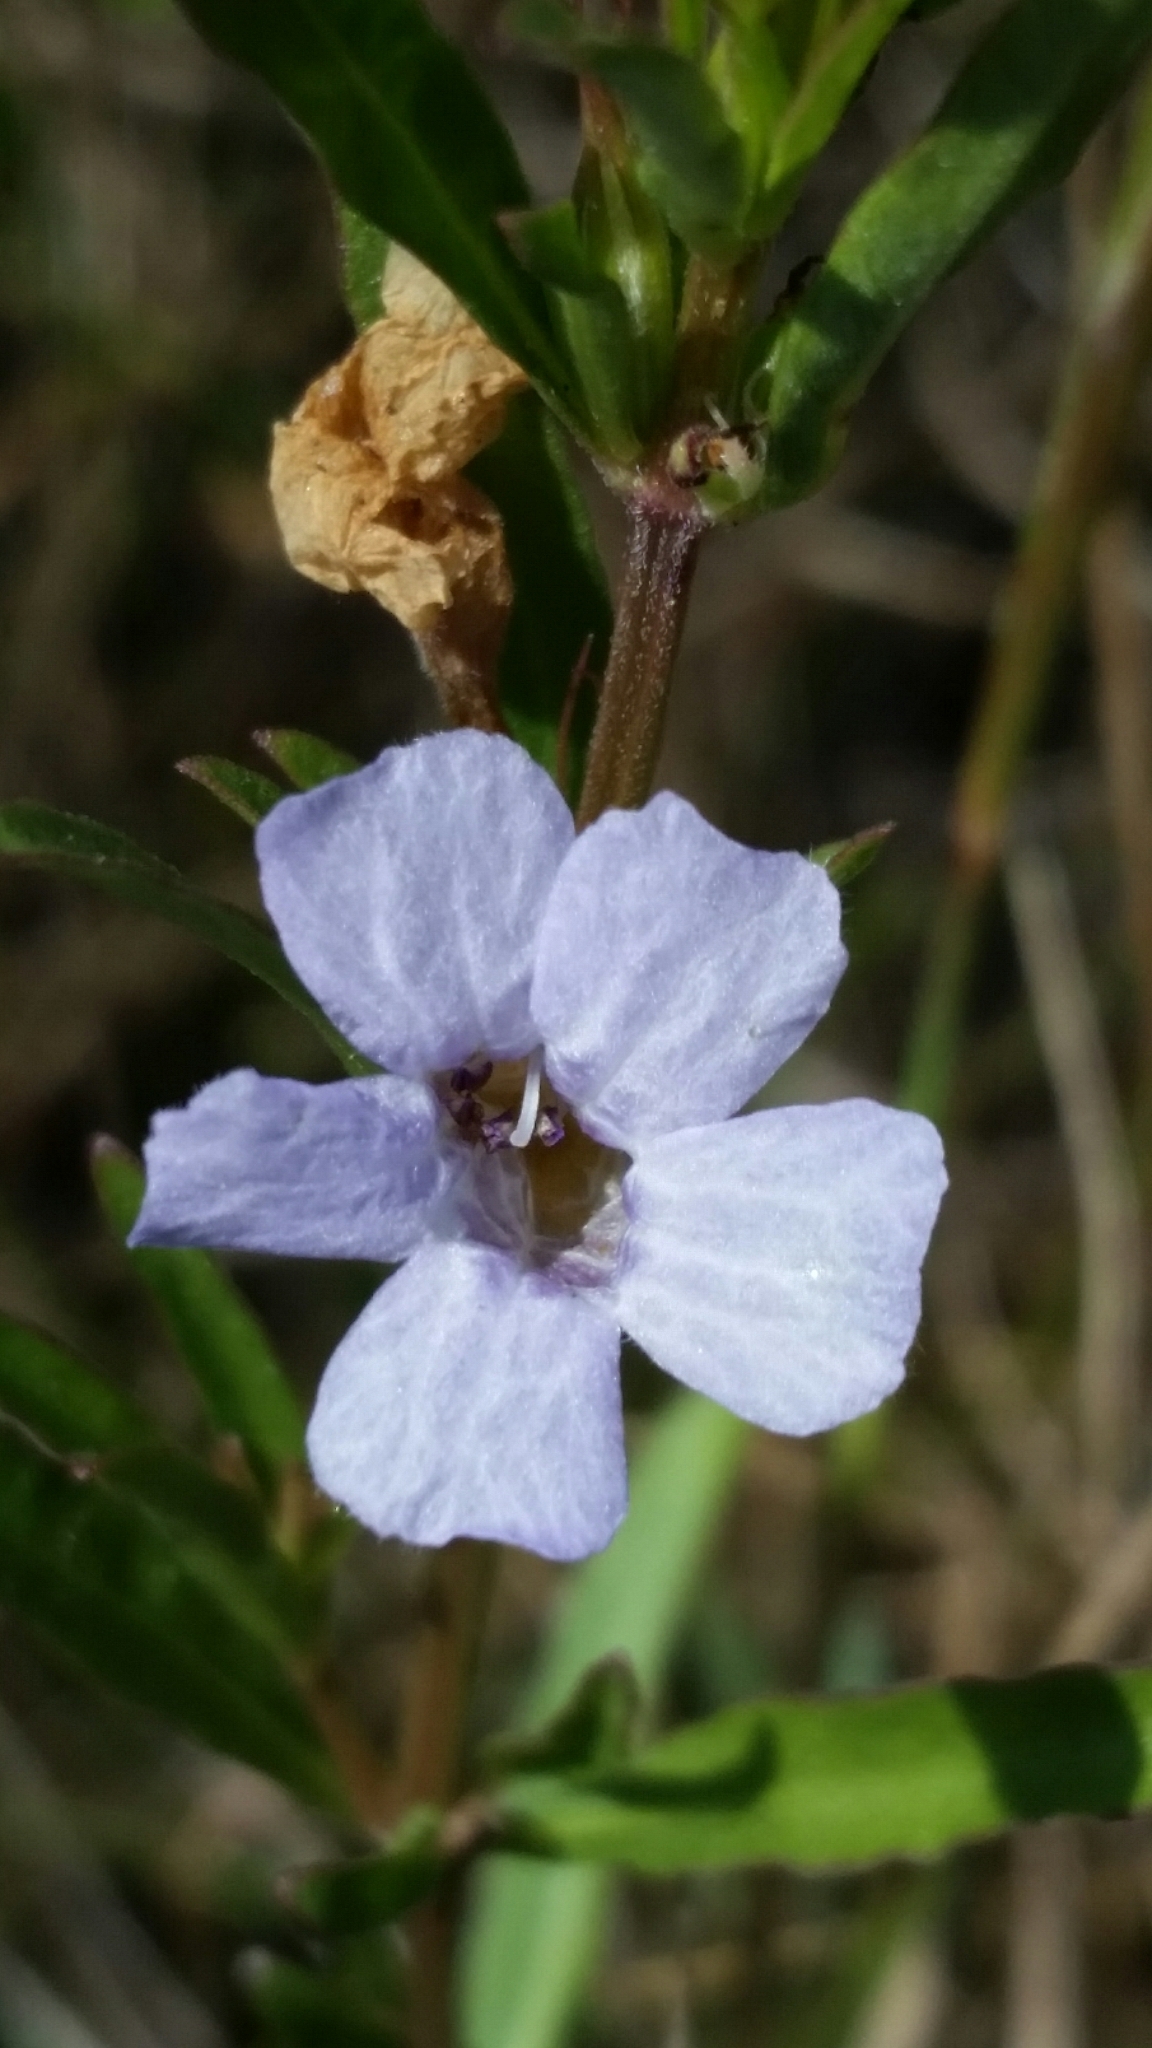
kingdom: Plantae
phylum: Tracheophyta
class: Magnoliopsida
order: Lamiales
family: Acanthaceae
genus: Dyschoriste
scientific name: Dyschoriste angusta
